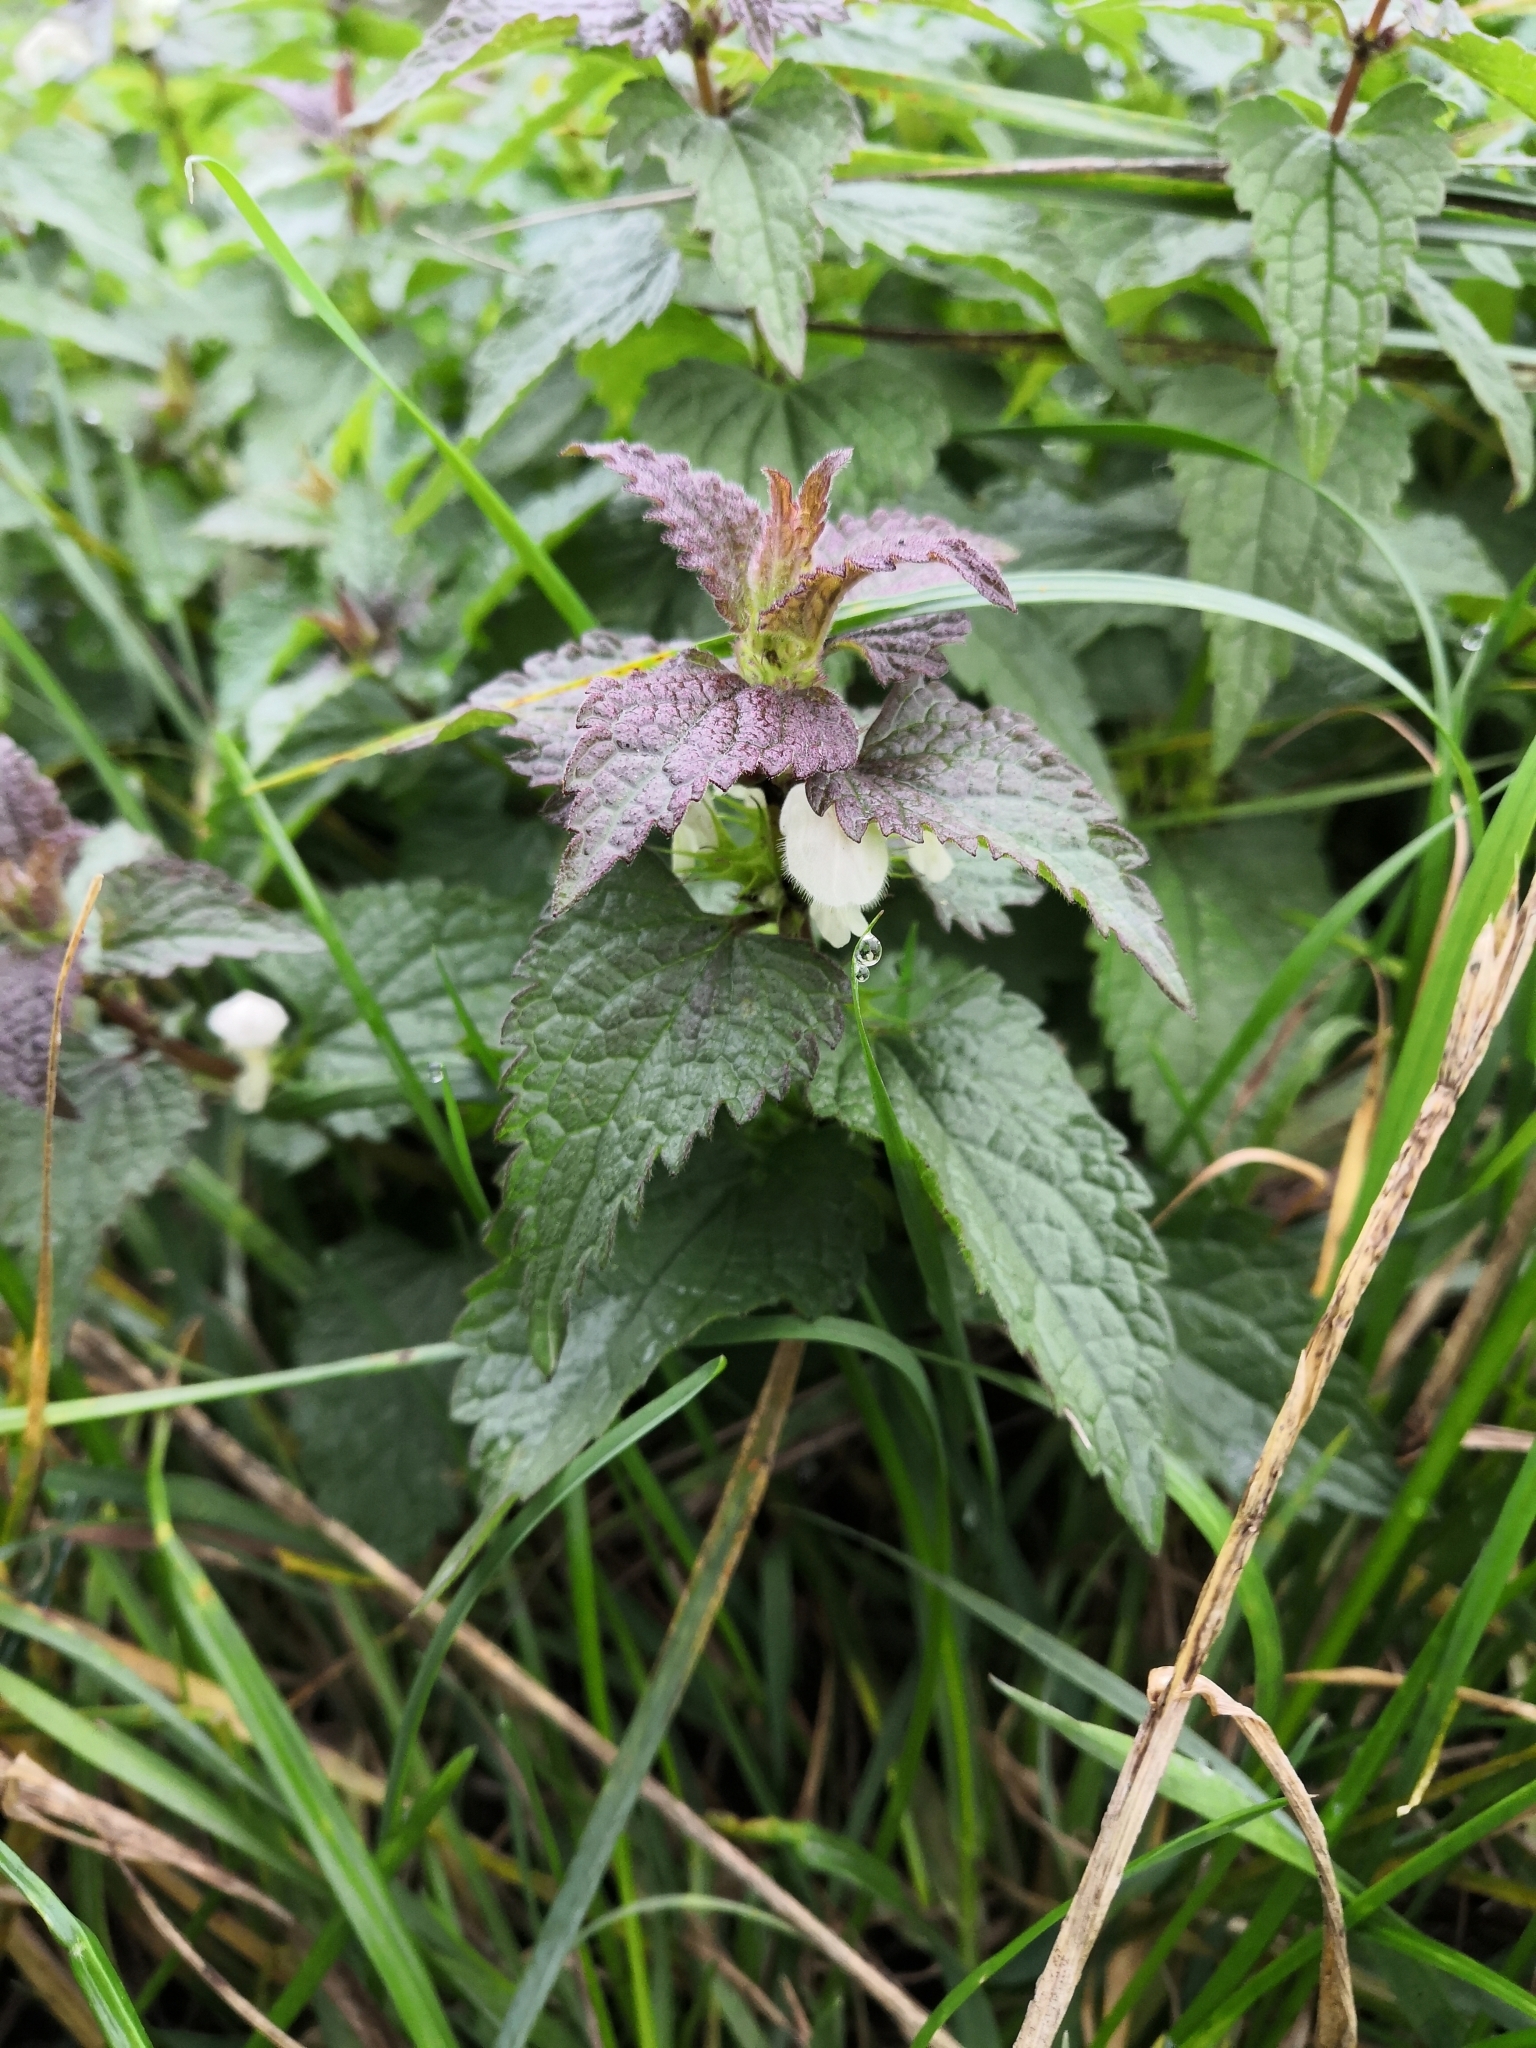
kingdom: Plantae
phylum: Tracheophyta
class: Magnoliopsida
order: Lamiales
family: Lamiaceae
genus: Lamium
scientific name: Lamium album
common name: White dead-nettle
